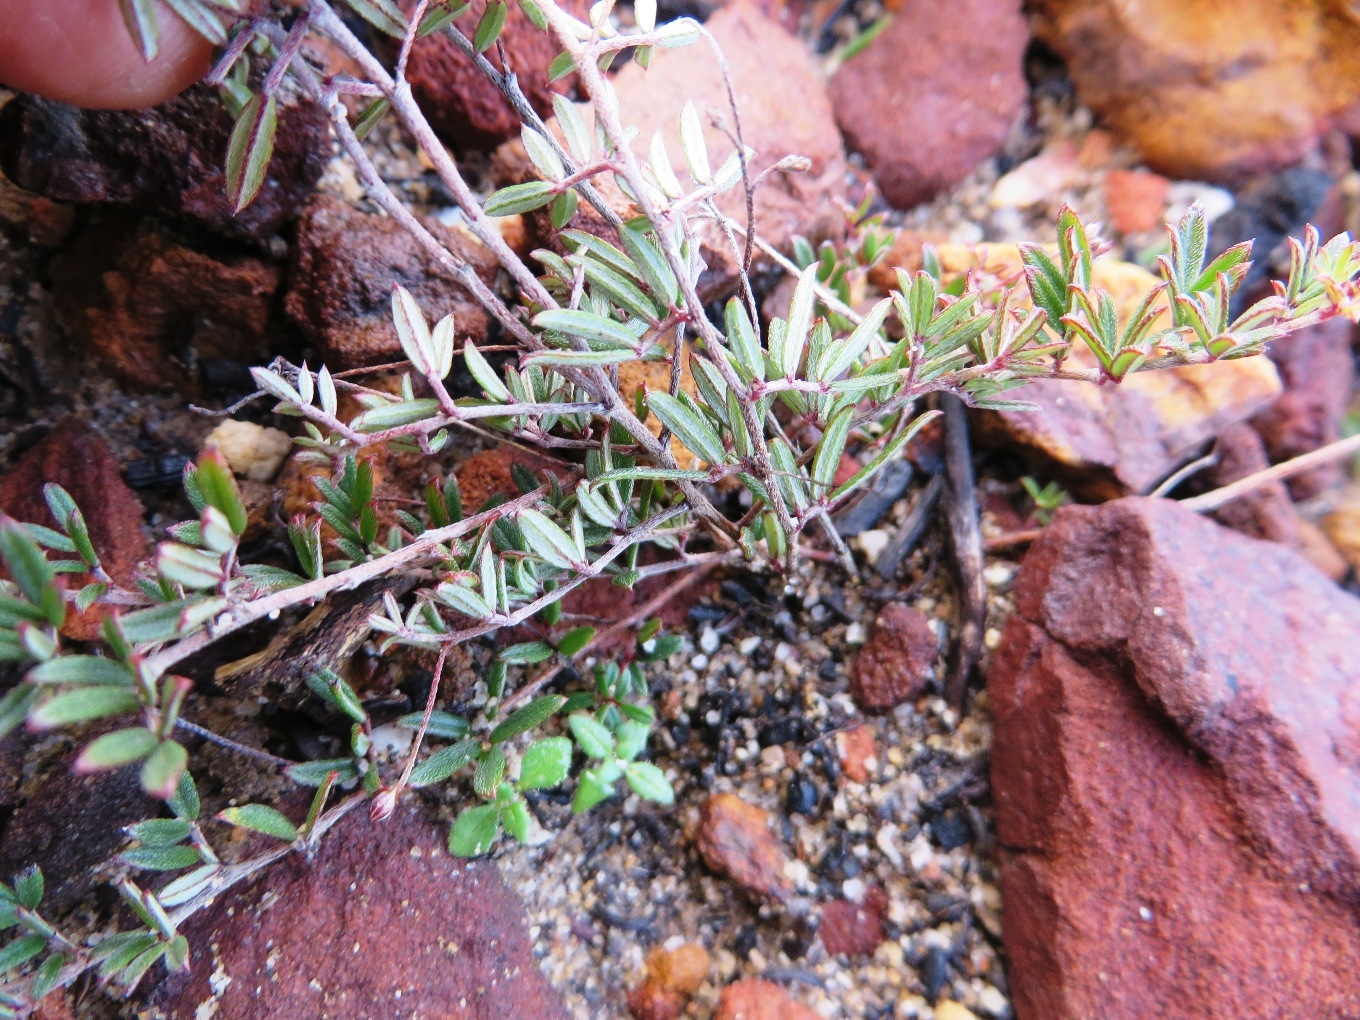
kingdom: Plantae
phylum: Tracheophyta
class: Magnoliopsida
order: Fabales
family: Fabaceae
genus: Indigofera
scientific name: Indigofera angustifolia
